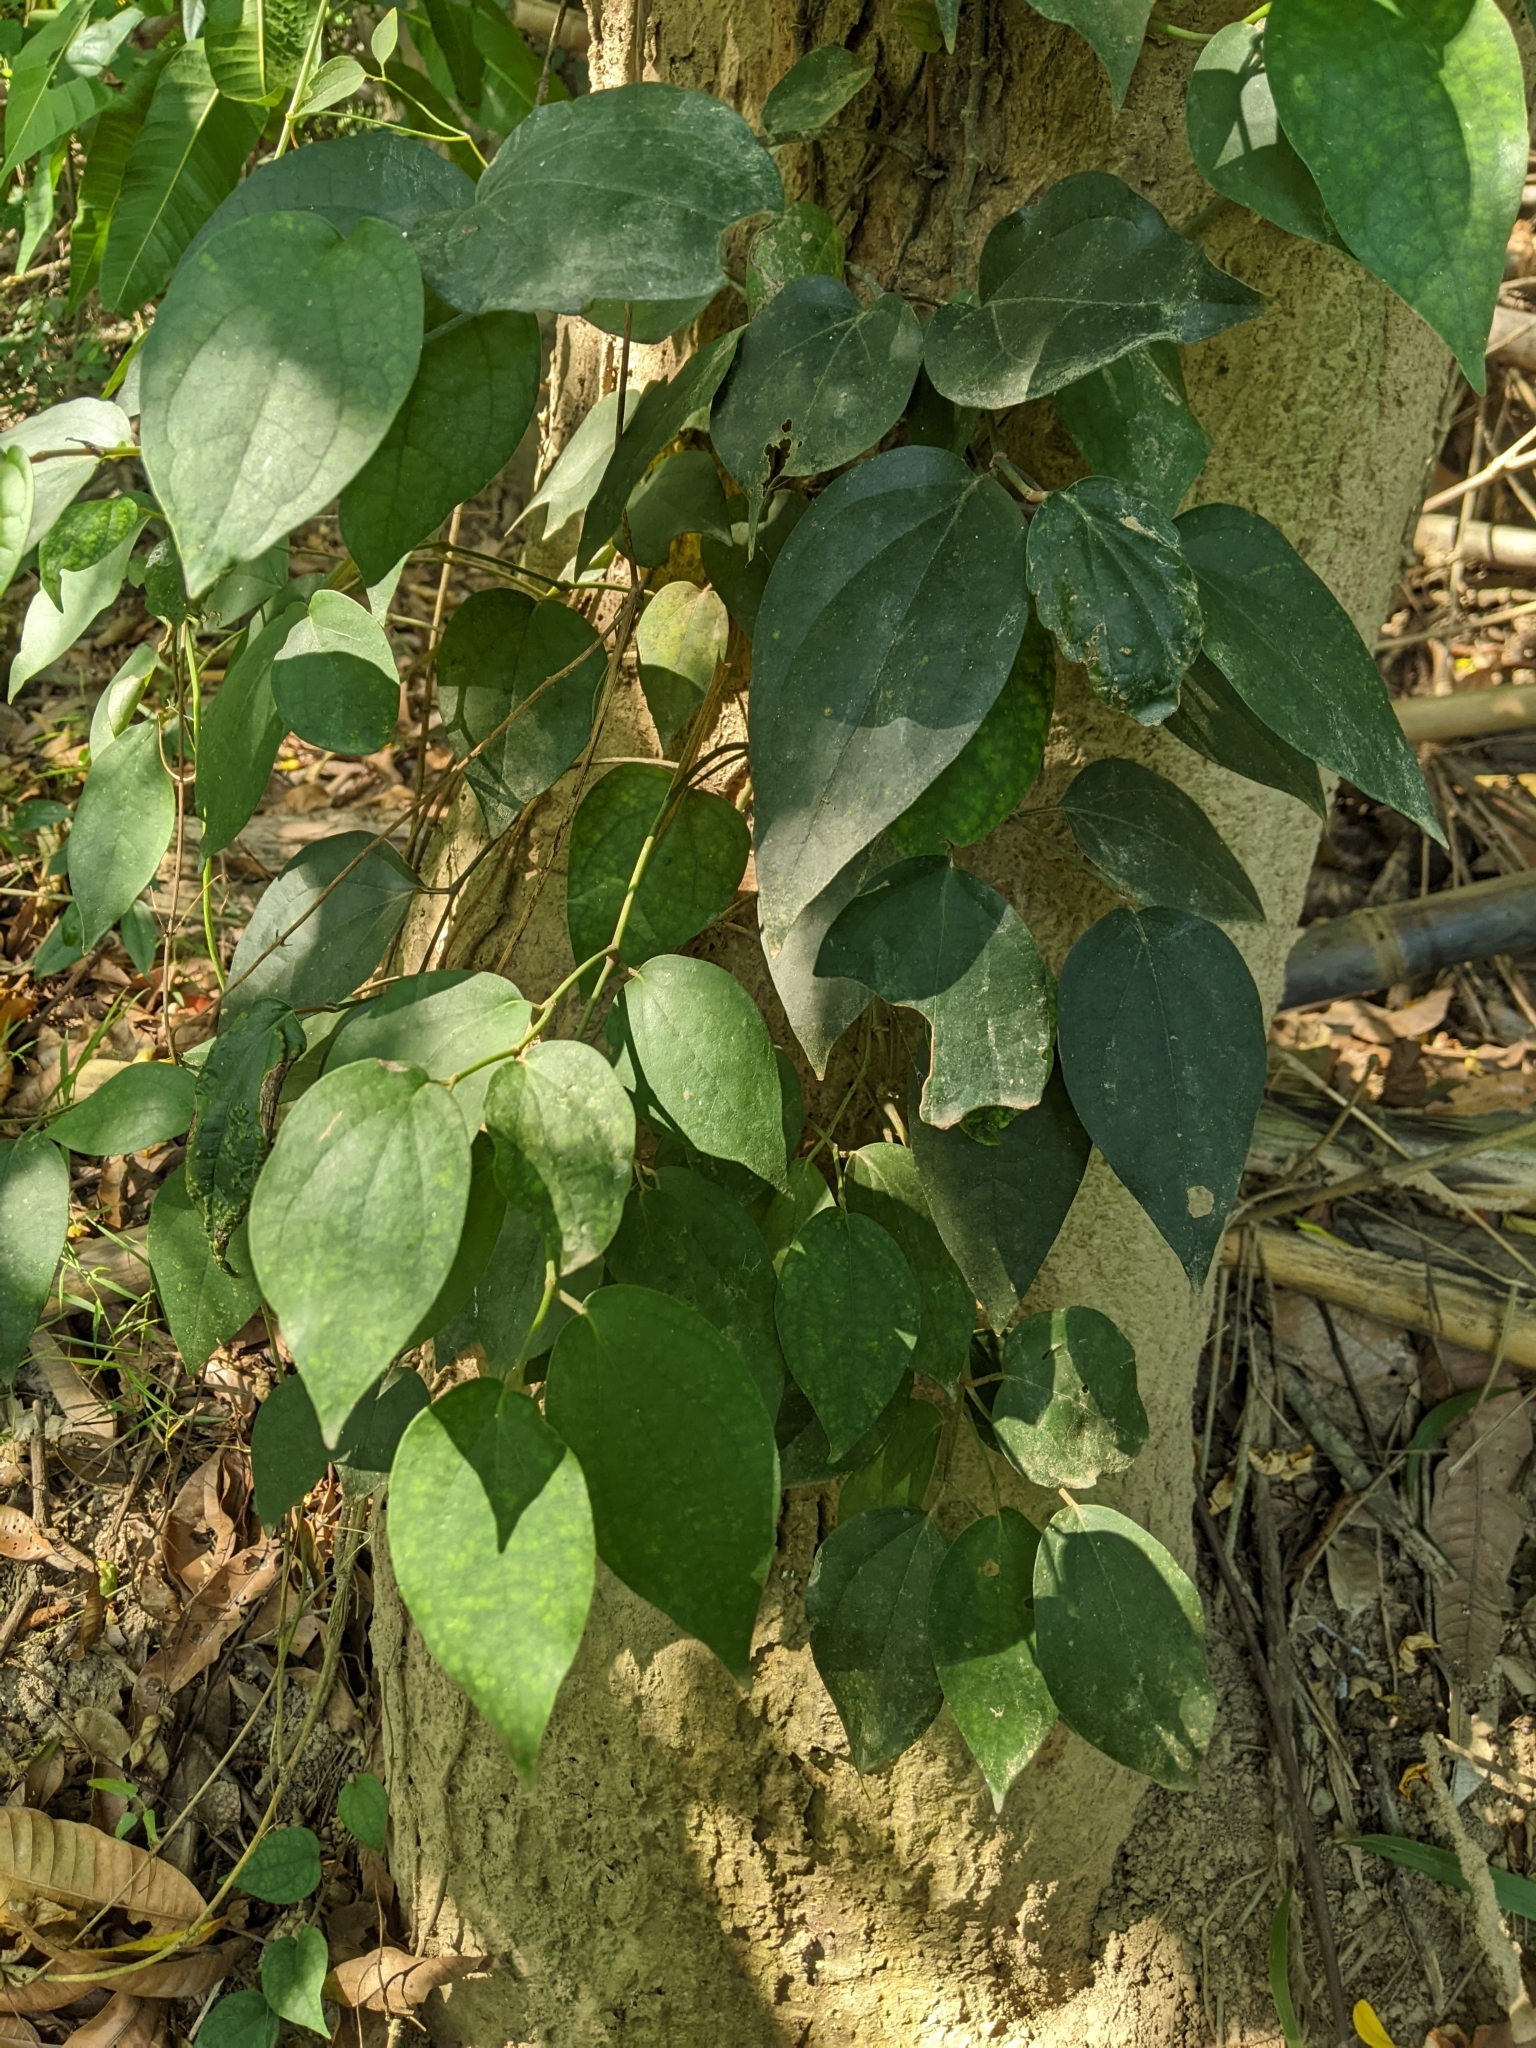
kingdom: Plantae
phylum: Tracheophyta
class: Magnoliopsida
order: Piperales
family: Piperaceae
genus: Piper
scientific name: Piper kadsura
